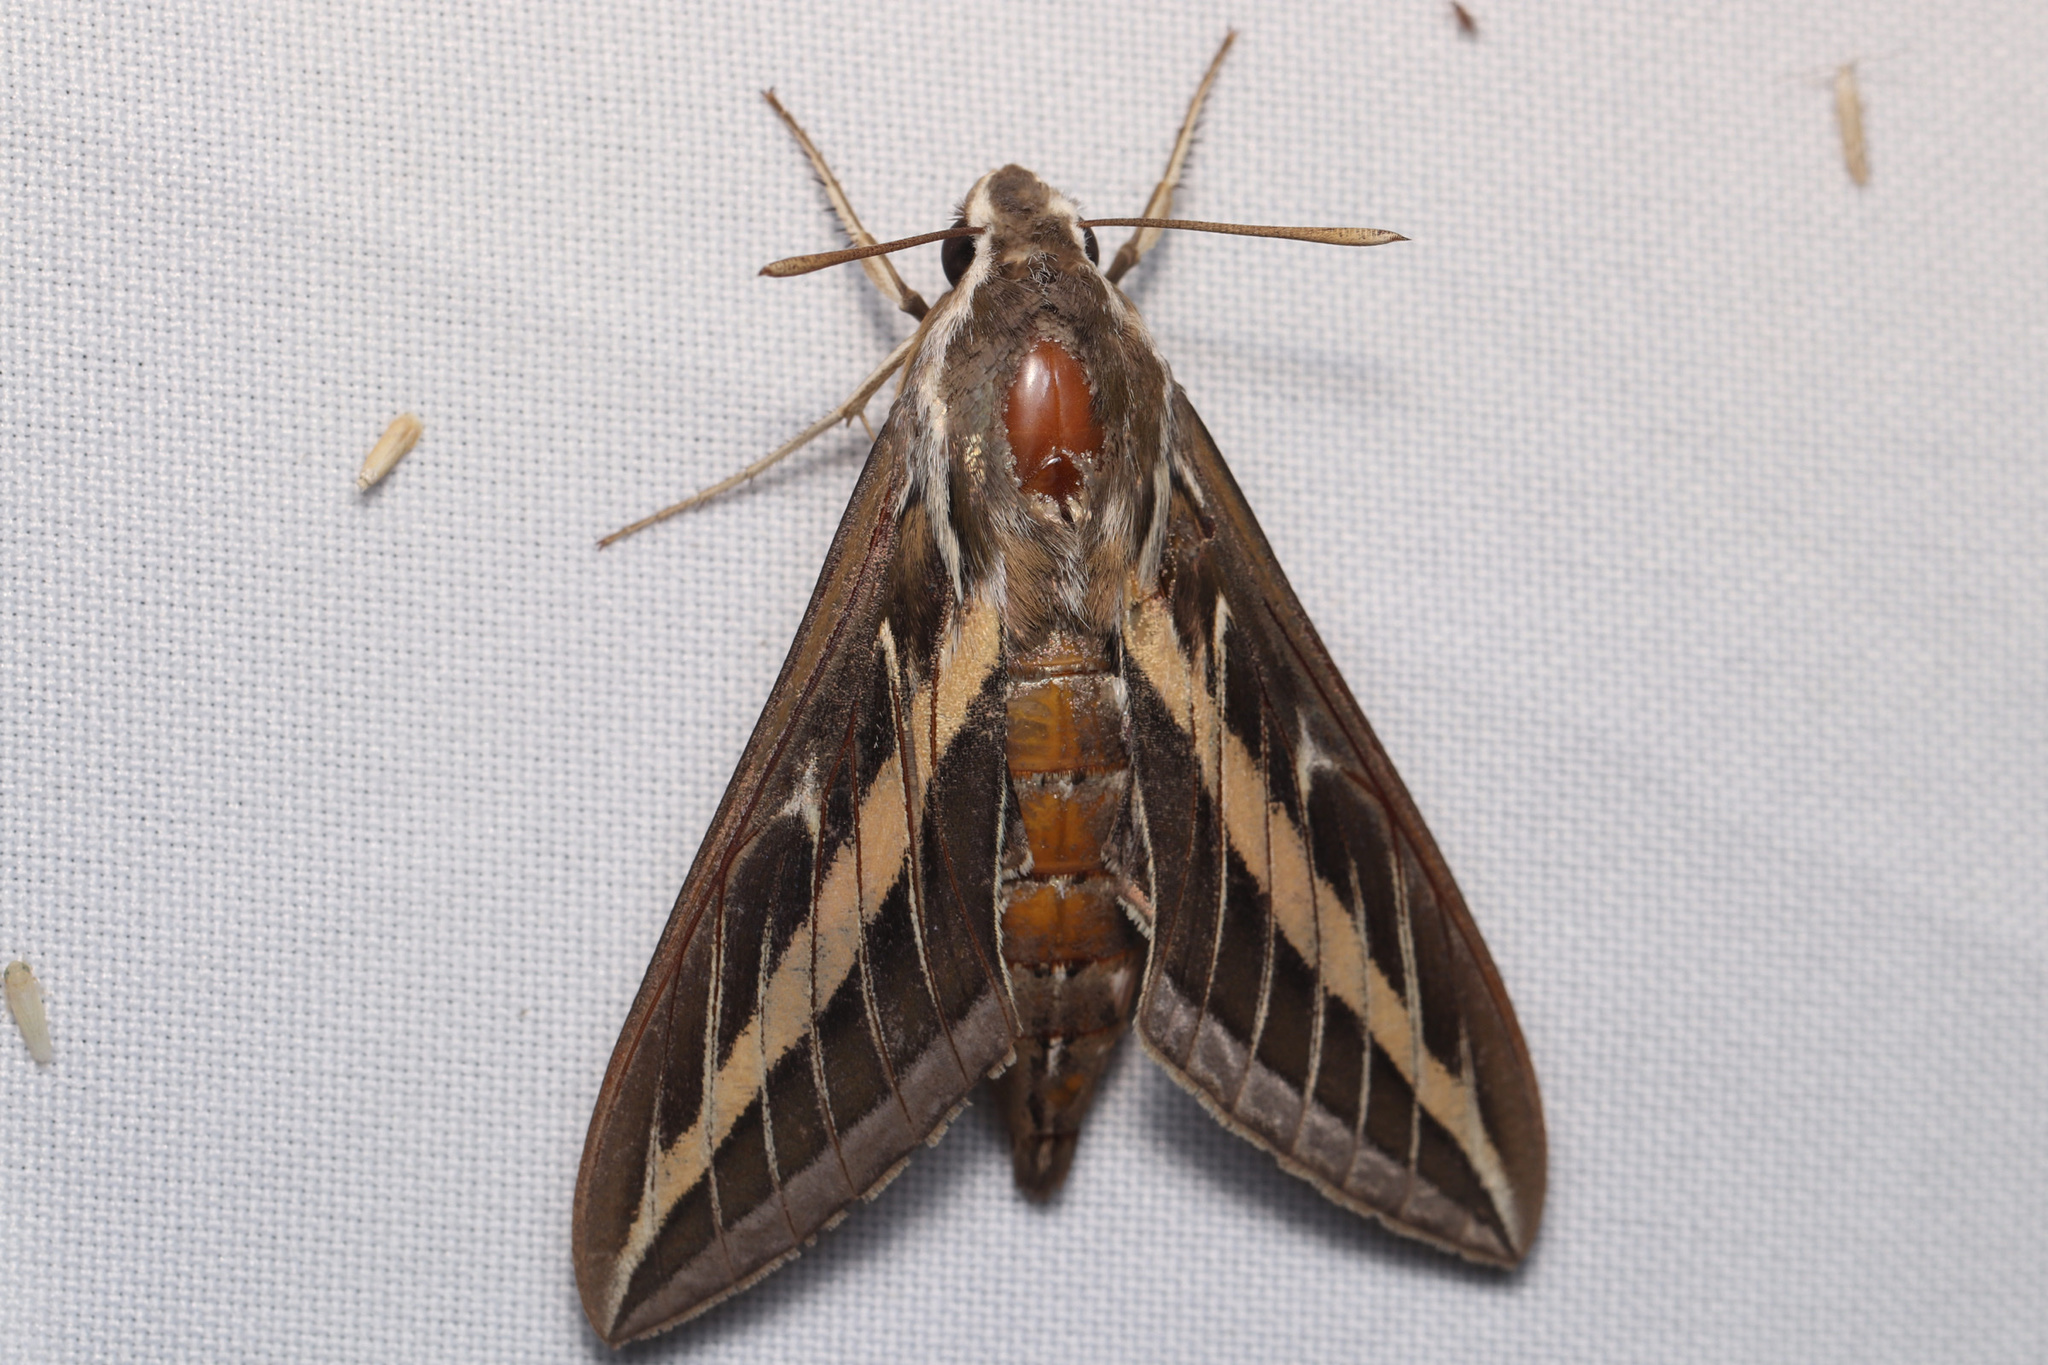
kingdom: Animalia
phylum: Arthropoda
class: Insecta
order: Lepidoptera
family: Sphingidae
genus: Hyles
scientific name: Hyles lineata
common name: White-lined sphinx
